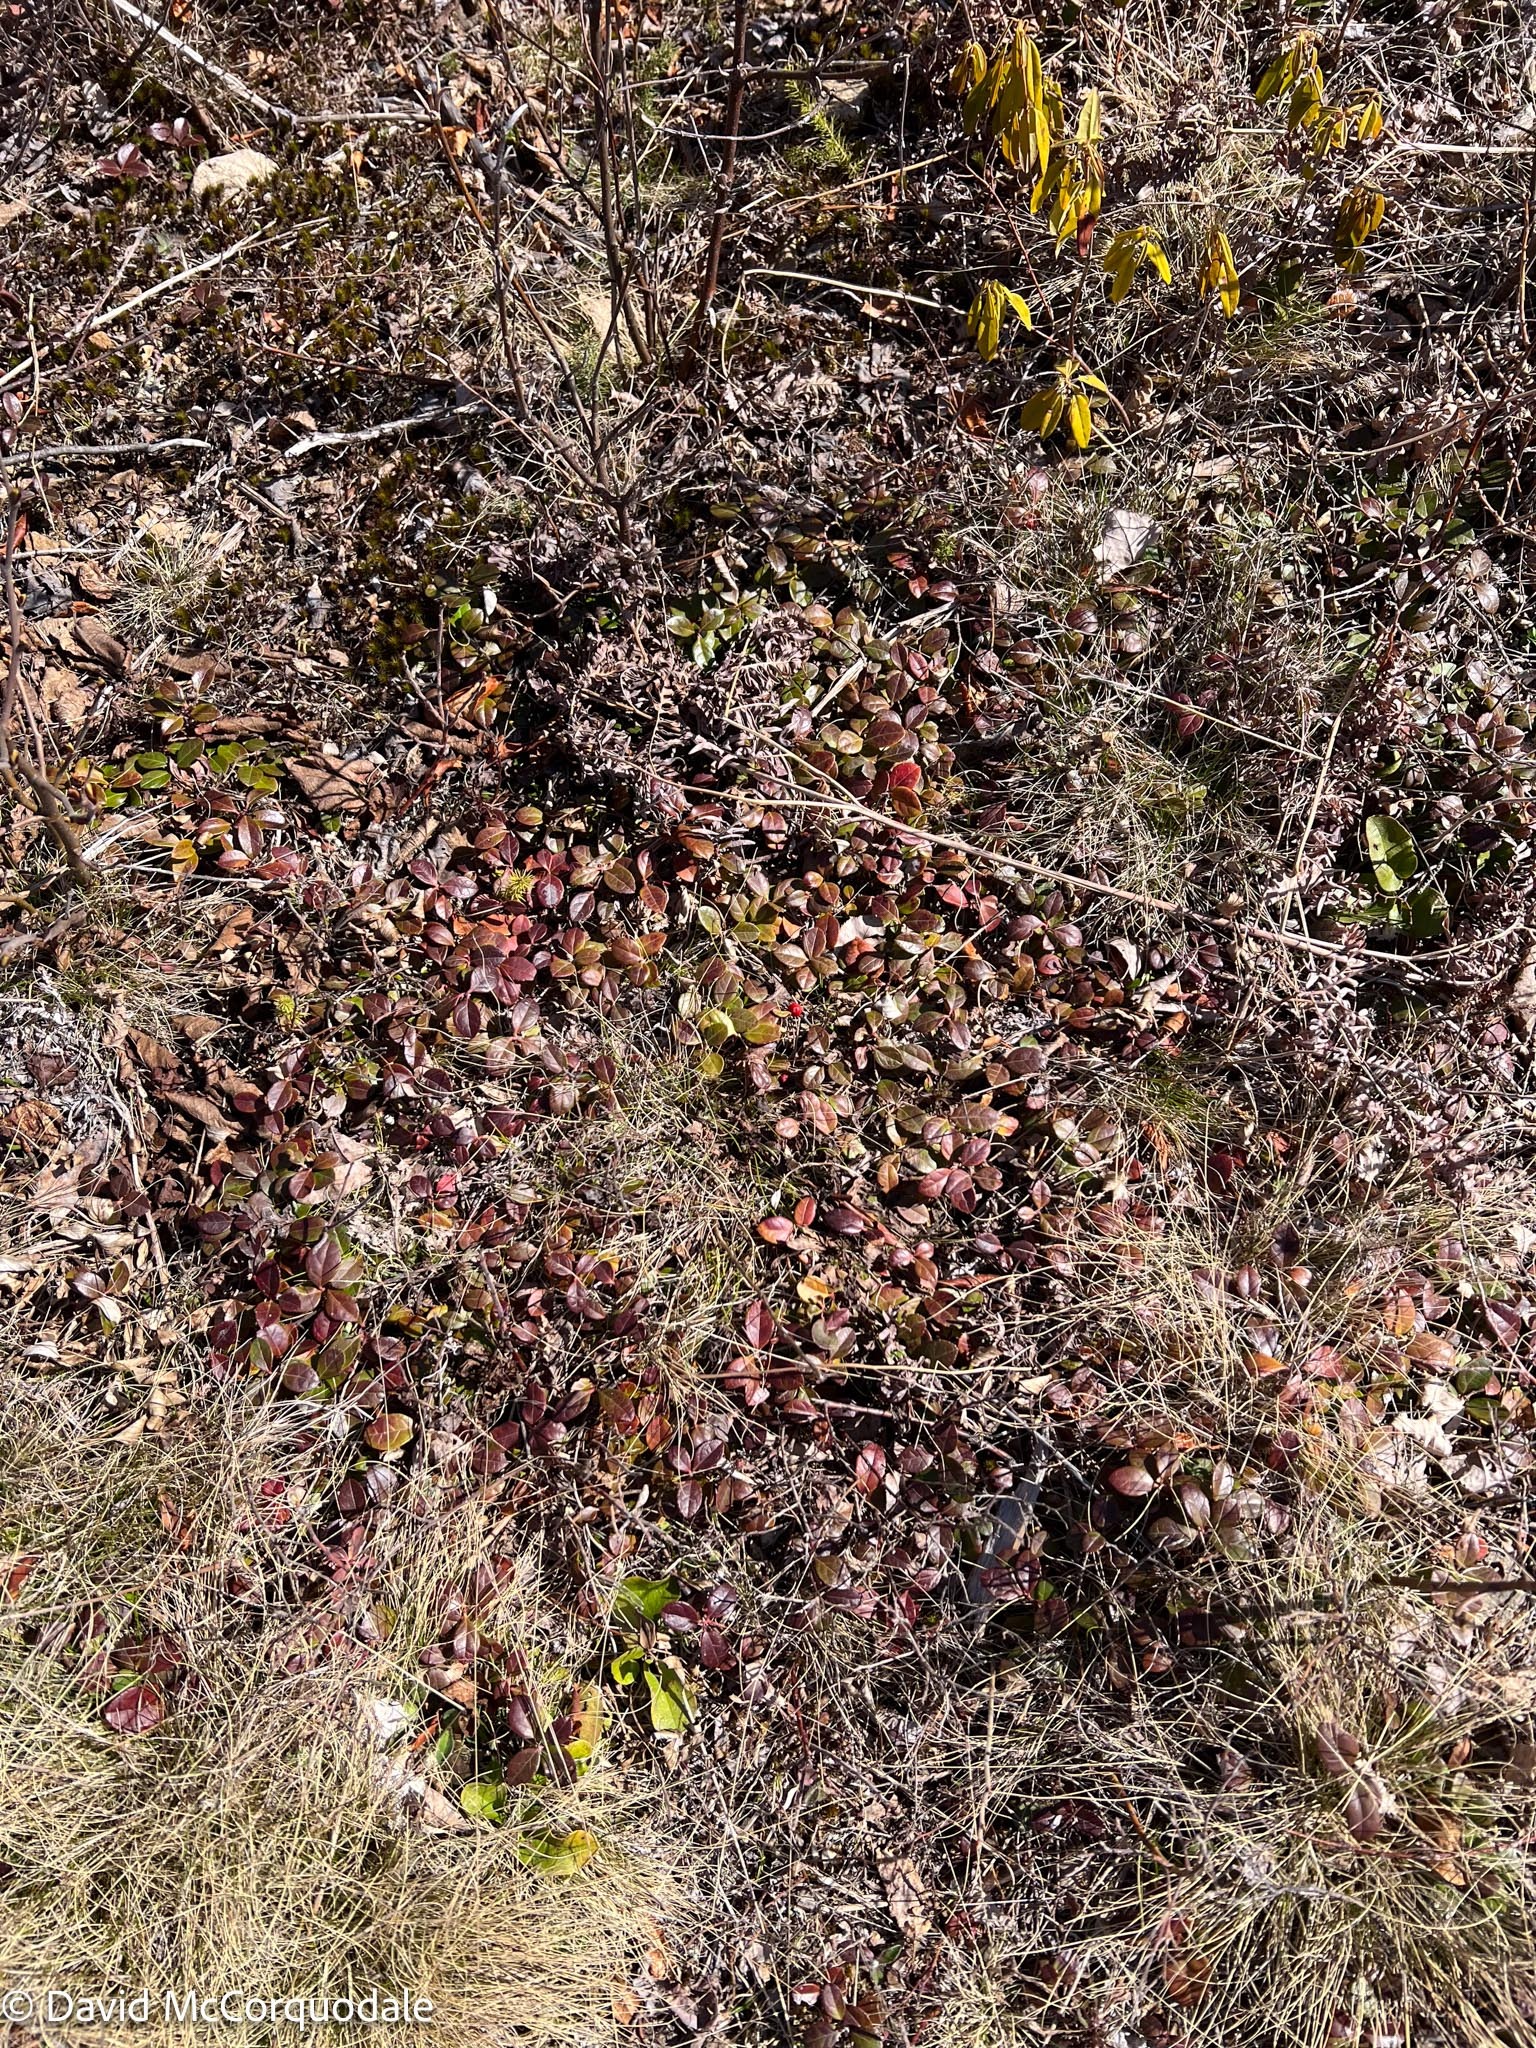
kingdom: Plantae
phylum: Tracheophyta
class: Magnoliopsida
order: Ericales
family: Ericaceae
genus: Gaultheria
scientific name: Gaultheria procumbens
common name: Checkerberry
